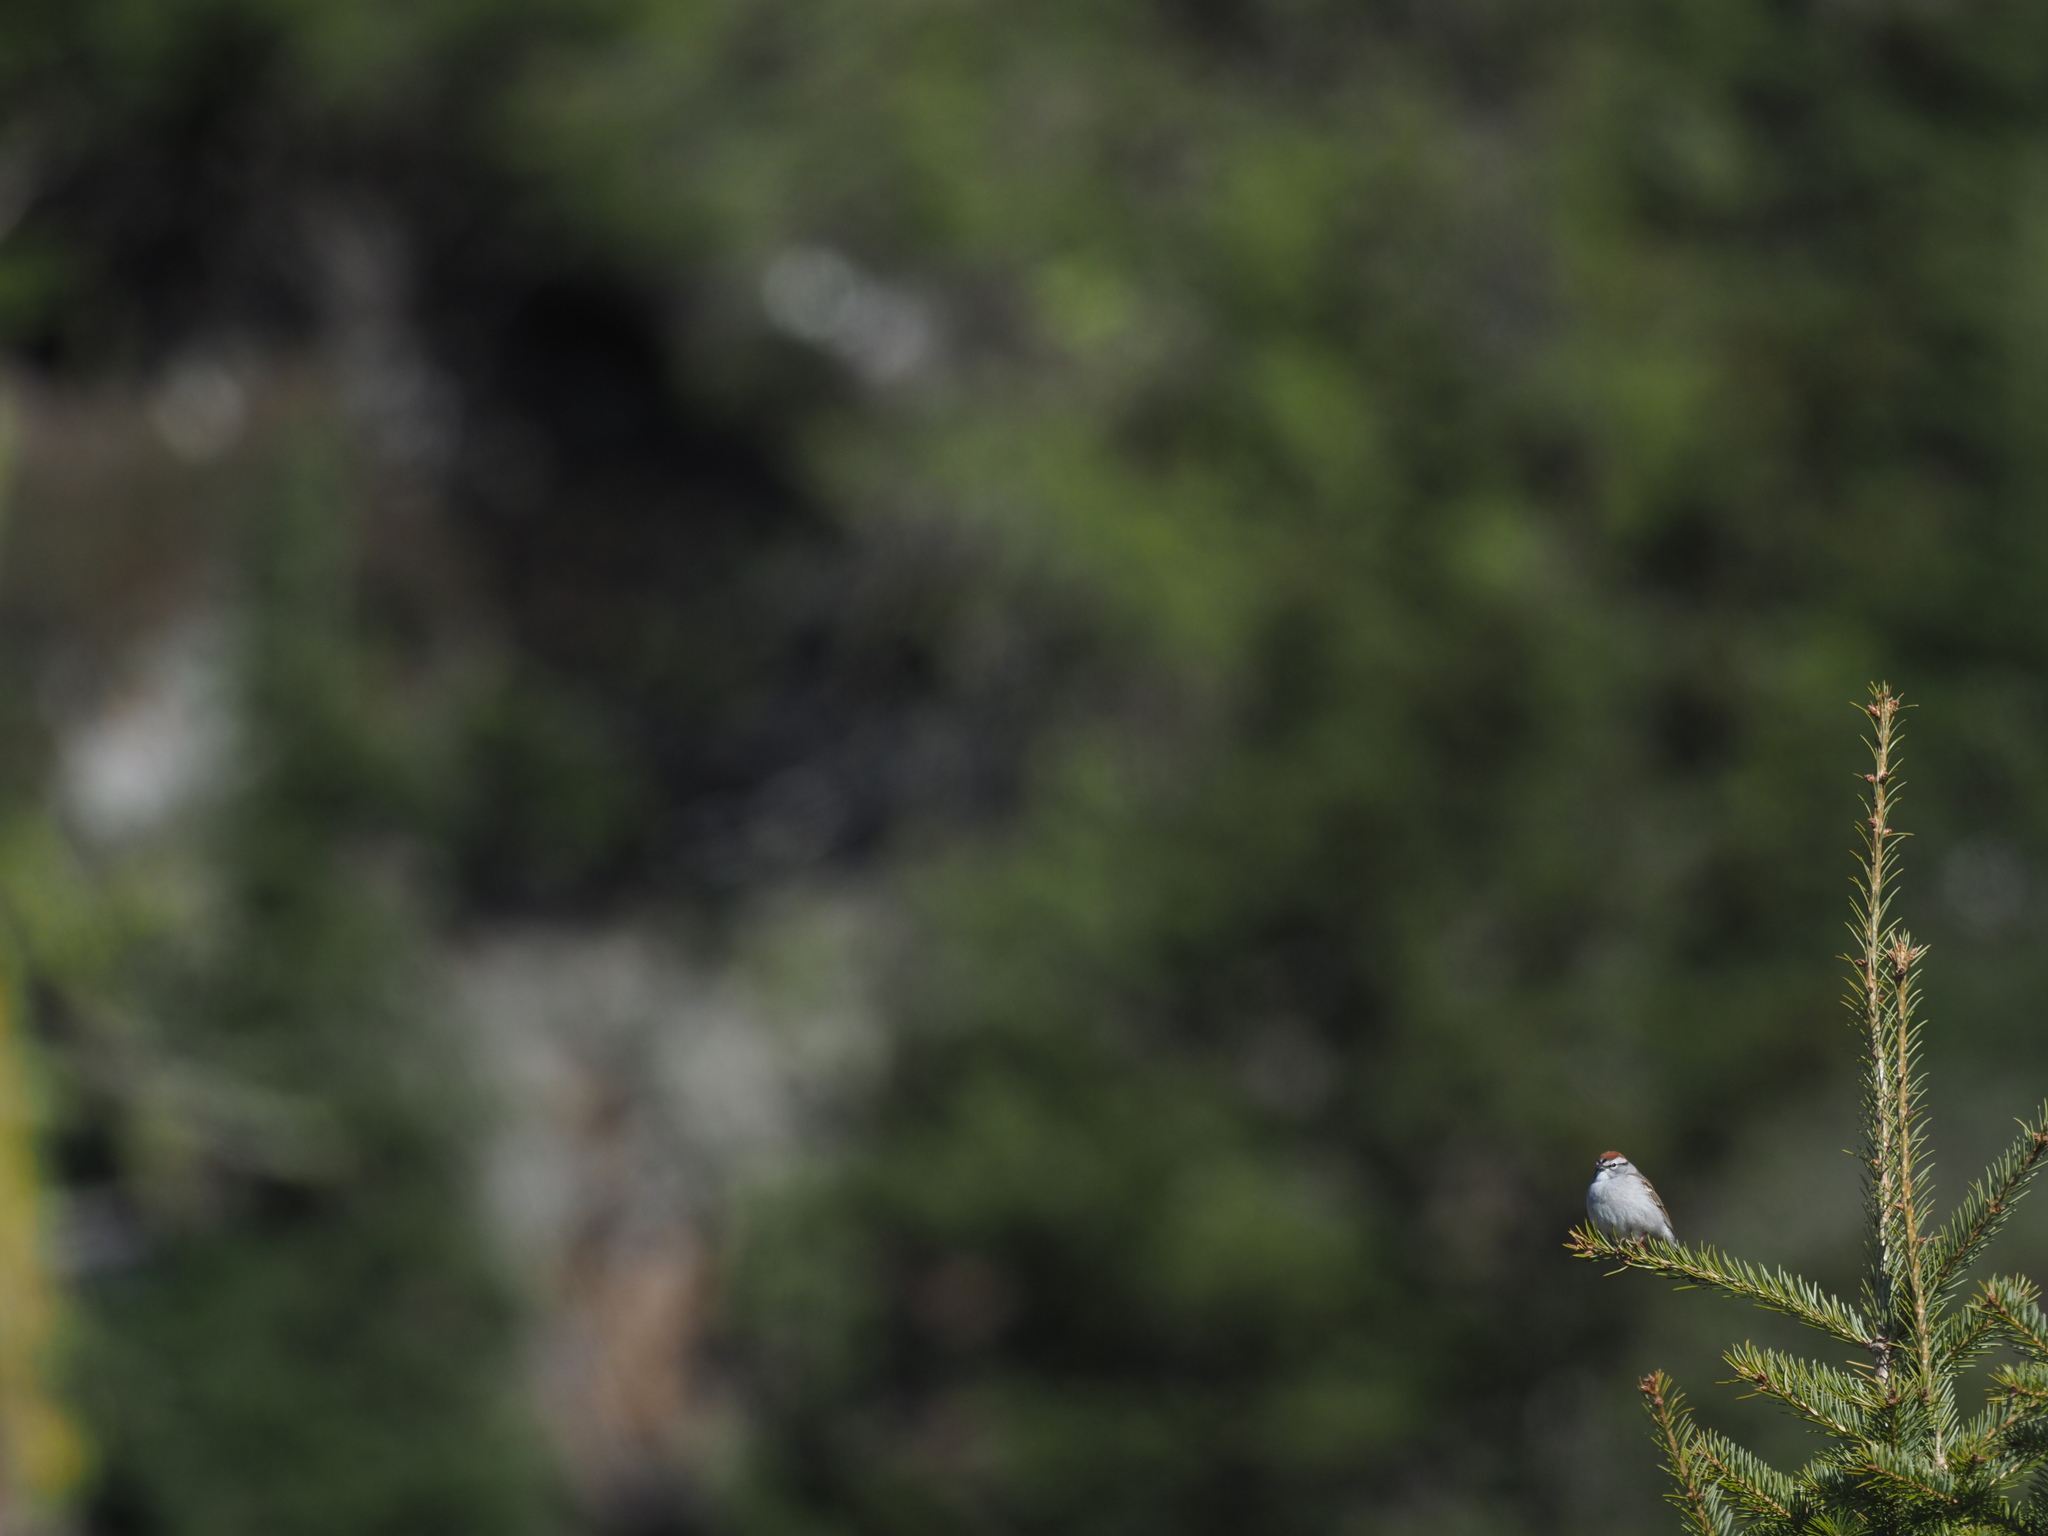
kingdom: Animalia
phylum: Chordata
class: Aves
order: Passeriformes
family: Passerellidae
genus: Spizella
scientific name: Spizella passerina
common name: Chipping sparrow
